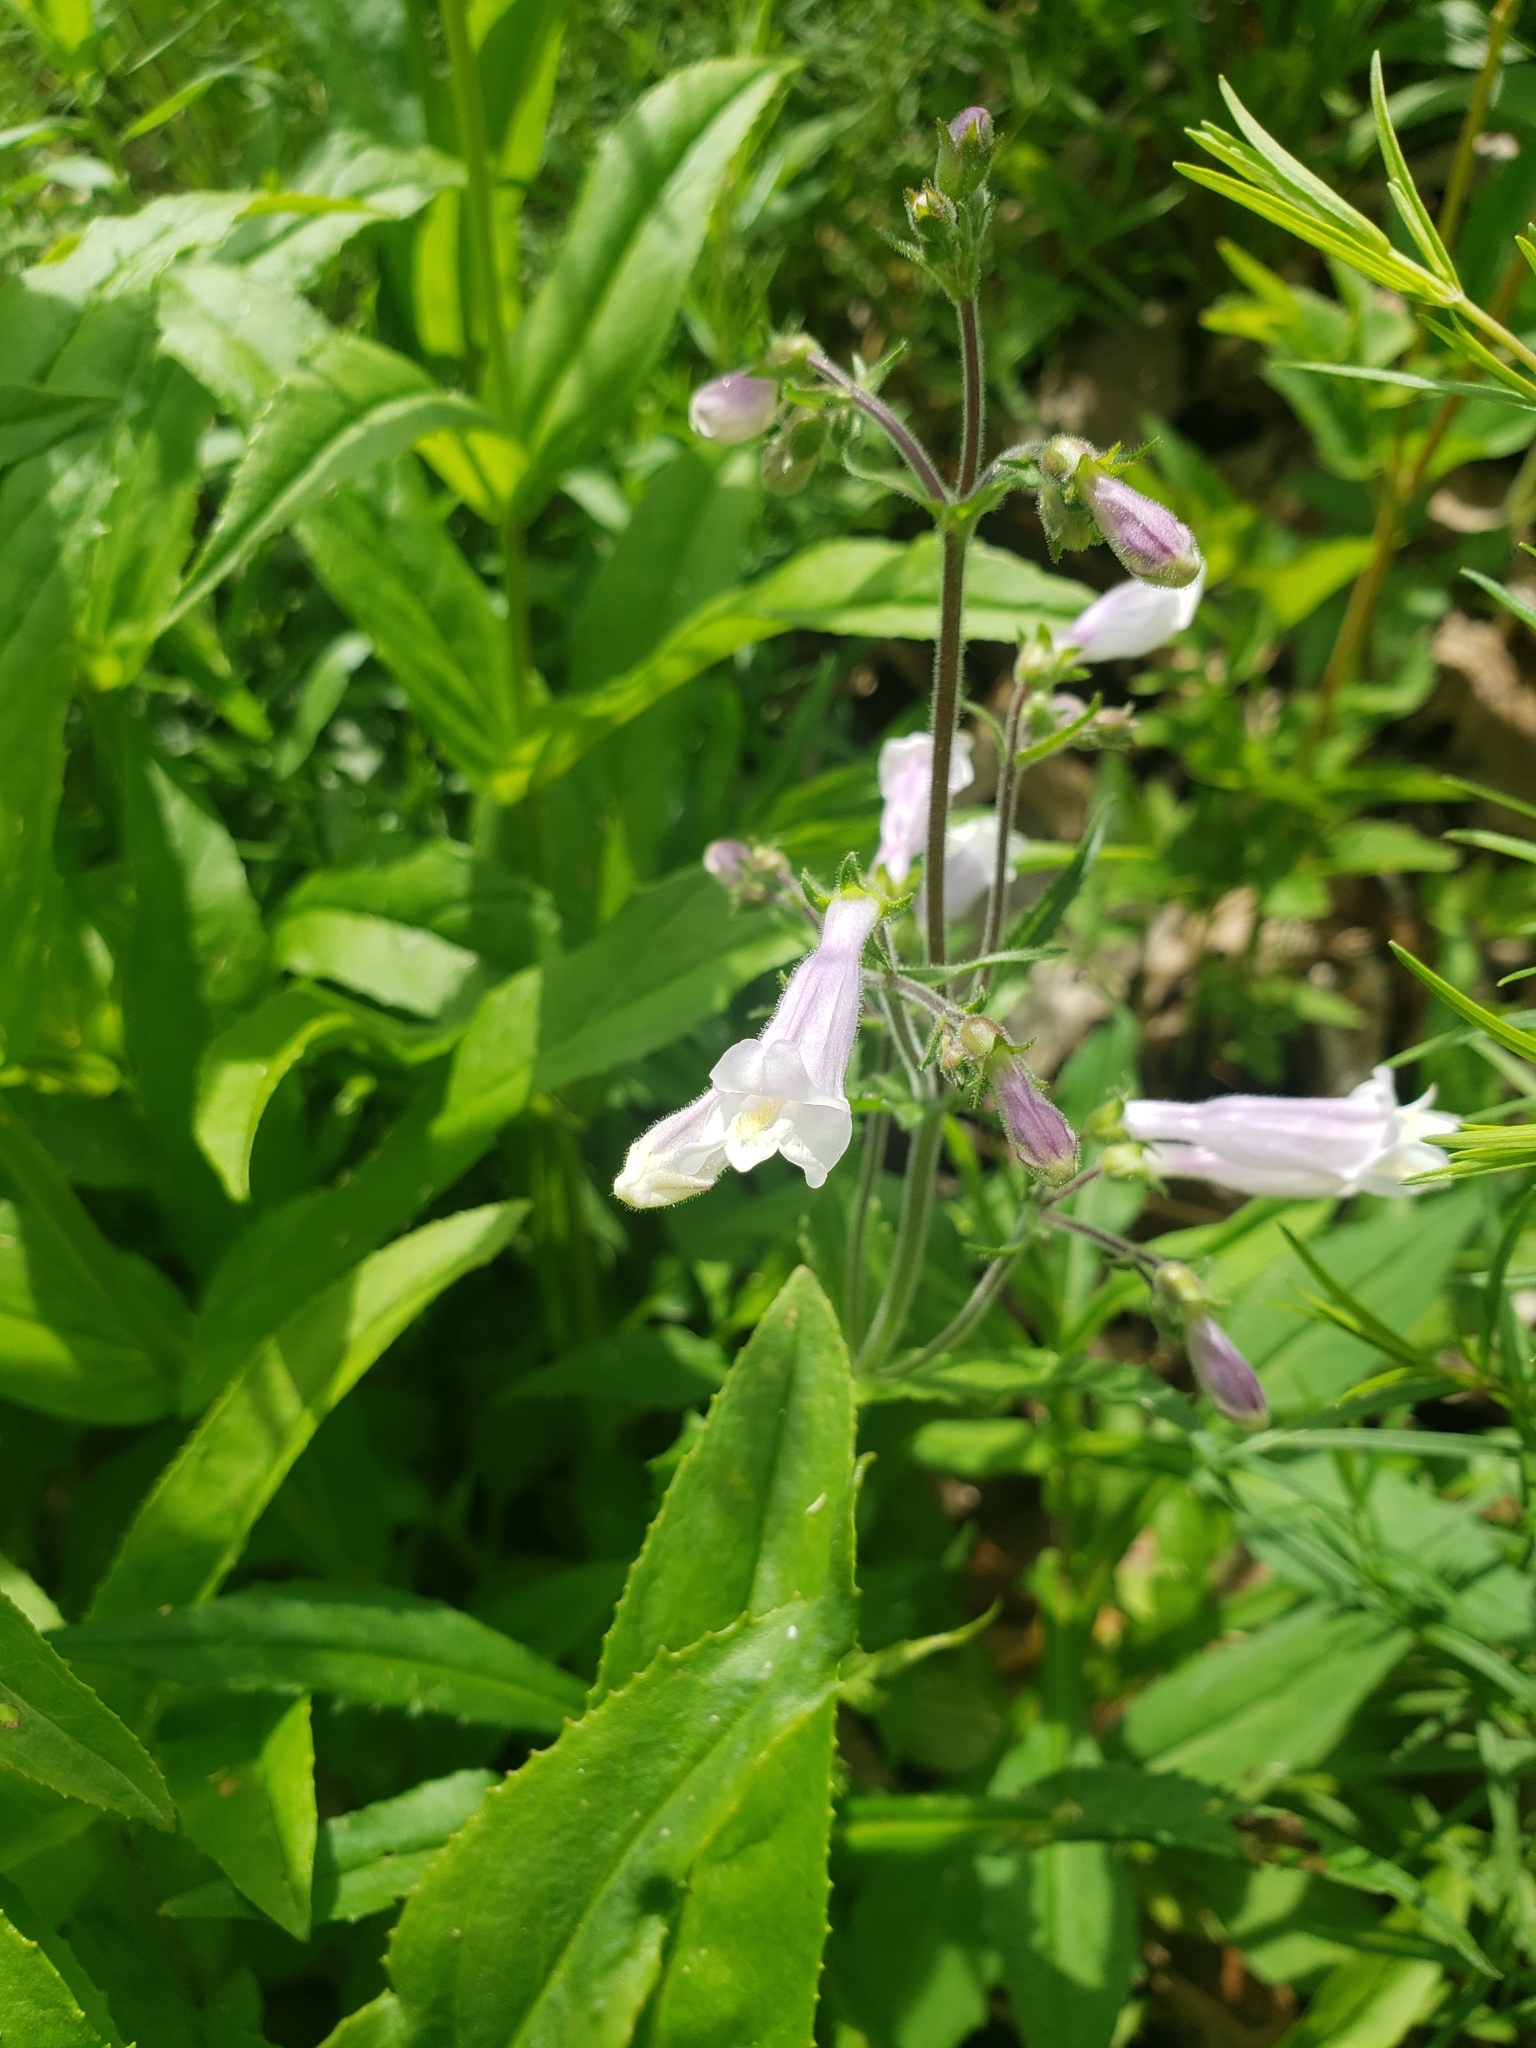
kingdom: Plantae
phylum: Tracheophyta
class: Magnoliopsida
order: Lamiales
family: Plantaginaceae
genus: Penstemon
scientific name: Penstemon hirsutus
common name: Hairy beardtongue
